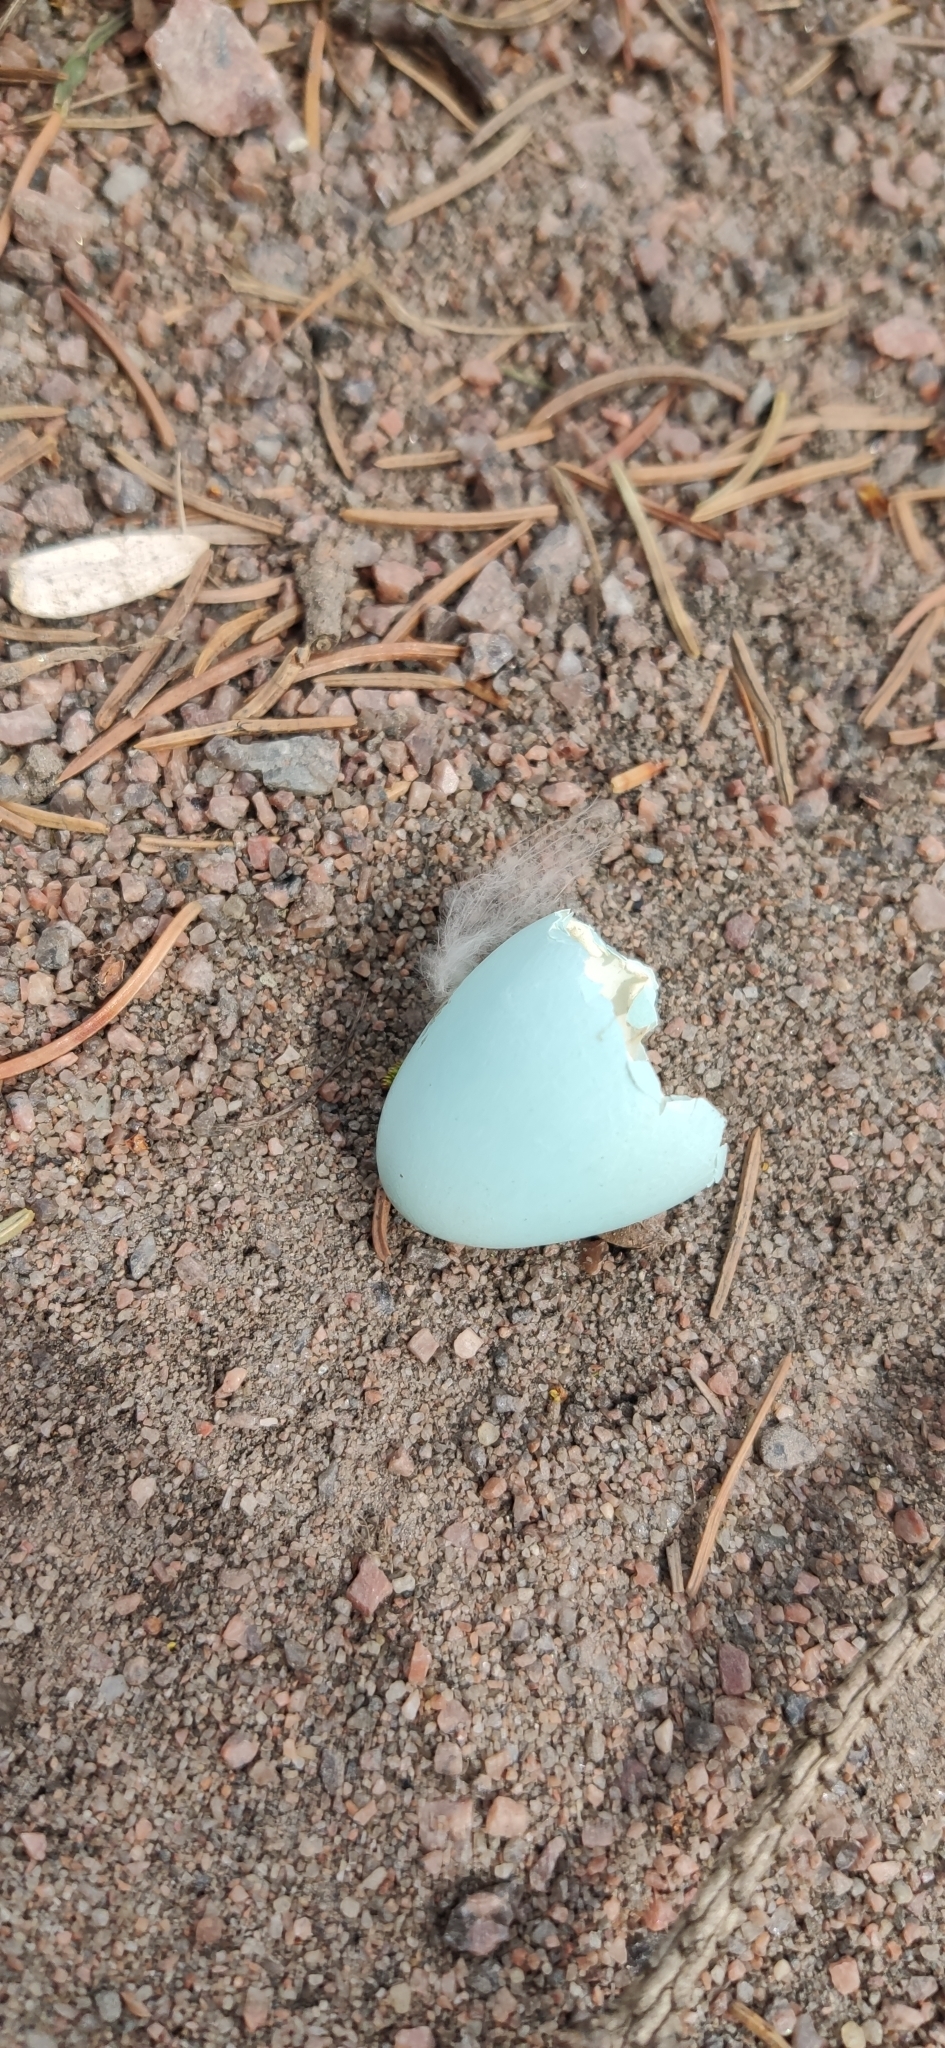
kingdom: Animalia
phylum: Chordata
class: Aves
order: Passeriformes
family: Sturnidae
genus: Sturnus
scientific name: Sturnus vulgaris
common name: Common starling
